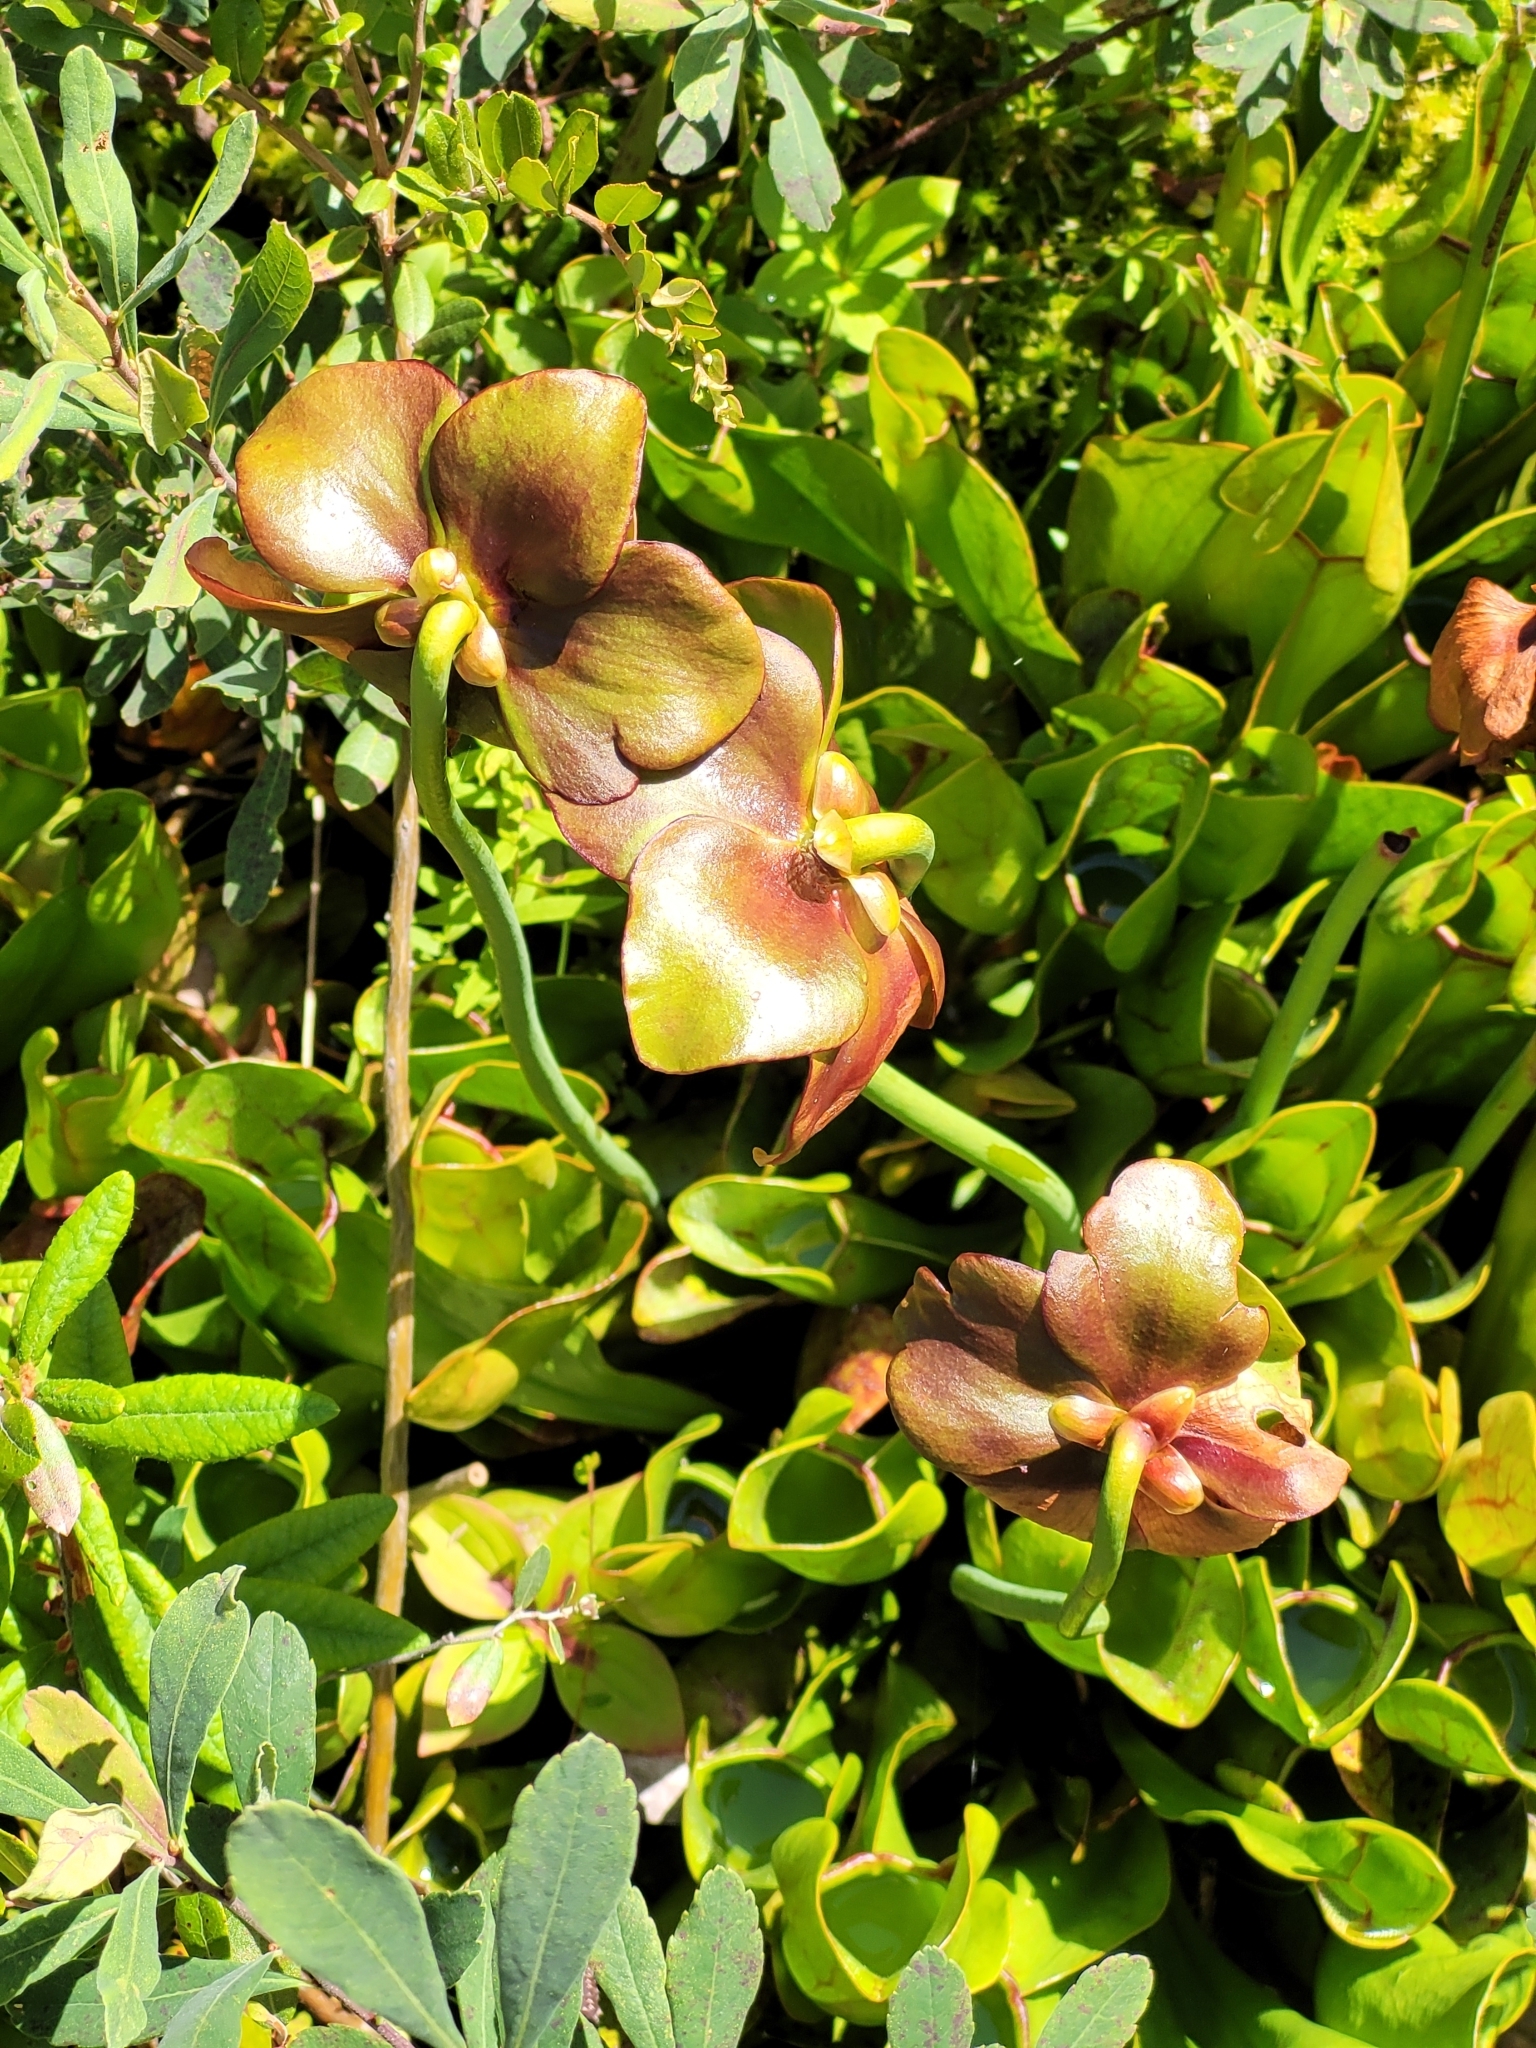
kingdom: Plantae
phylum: Tracheophyta
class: Magnoliopsida
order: Ericales
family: Sarraceniaceae
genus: Sarracenia
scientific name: Sarracenia purpurea
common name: Pitcherplant
